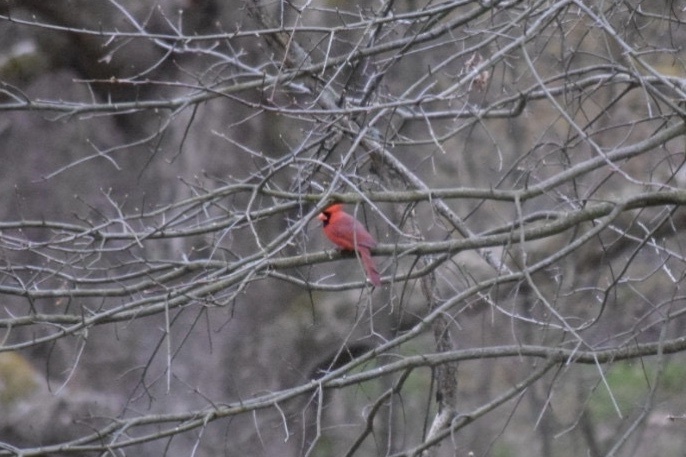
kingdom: Animalia
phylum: Chordata
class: Aves
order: Passeriformes
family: Cardinalidae
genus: Cardinalis
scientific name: Cardinalis cardinalis
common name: Northern cardinal
